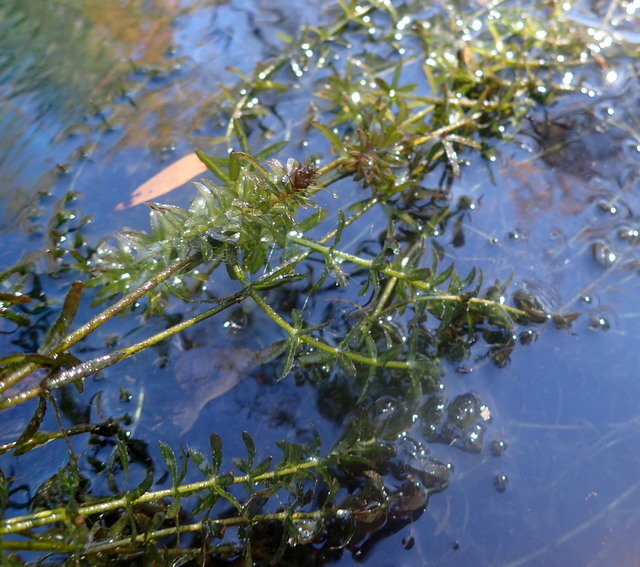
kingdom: Plantae
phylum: Tracheophyta
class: Liliopsida
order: Alismatales
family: Hydrocharitaceae
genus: Hydrilla
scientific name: Hydrilla verticillata
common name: Florida-elodea
